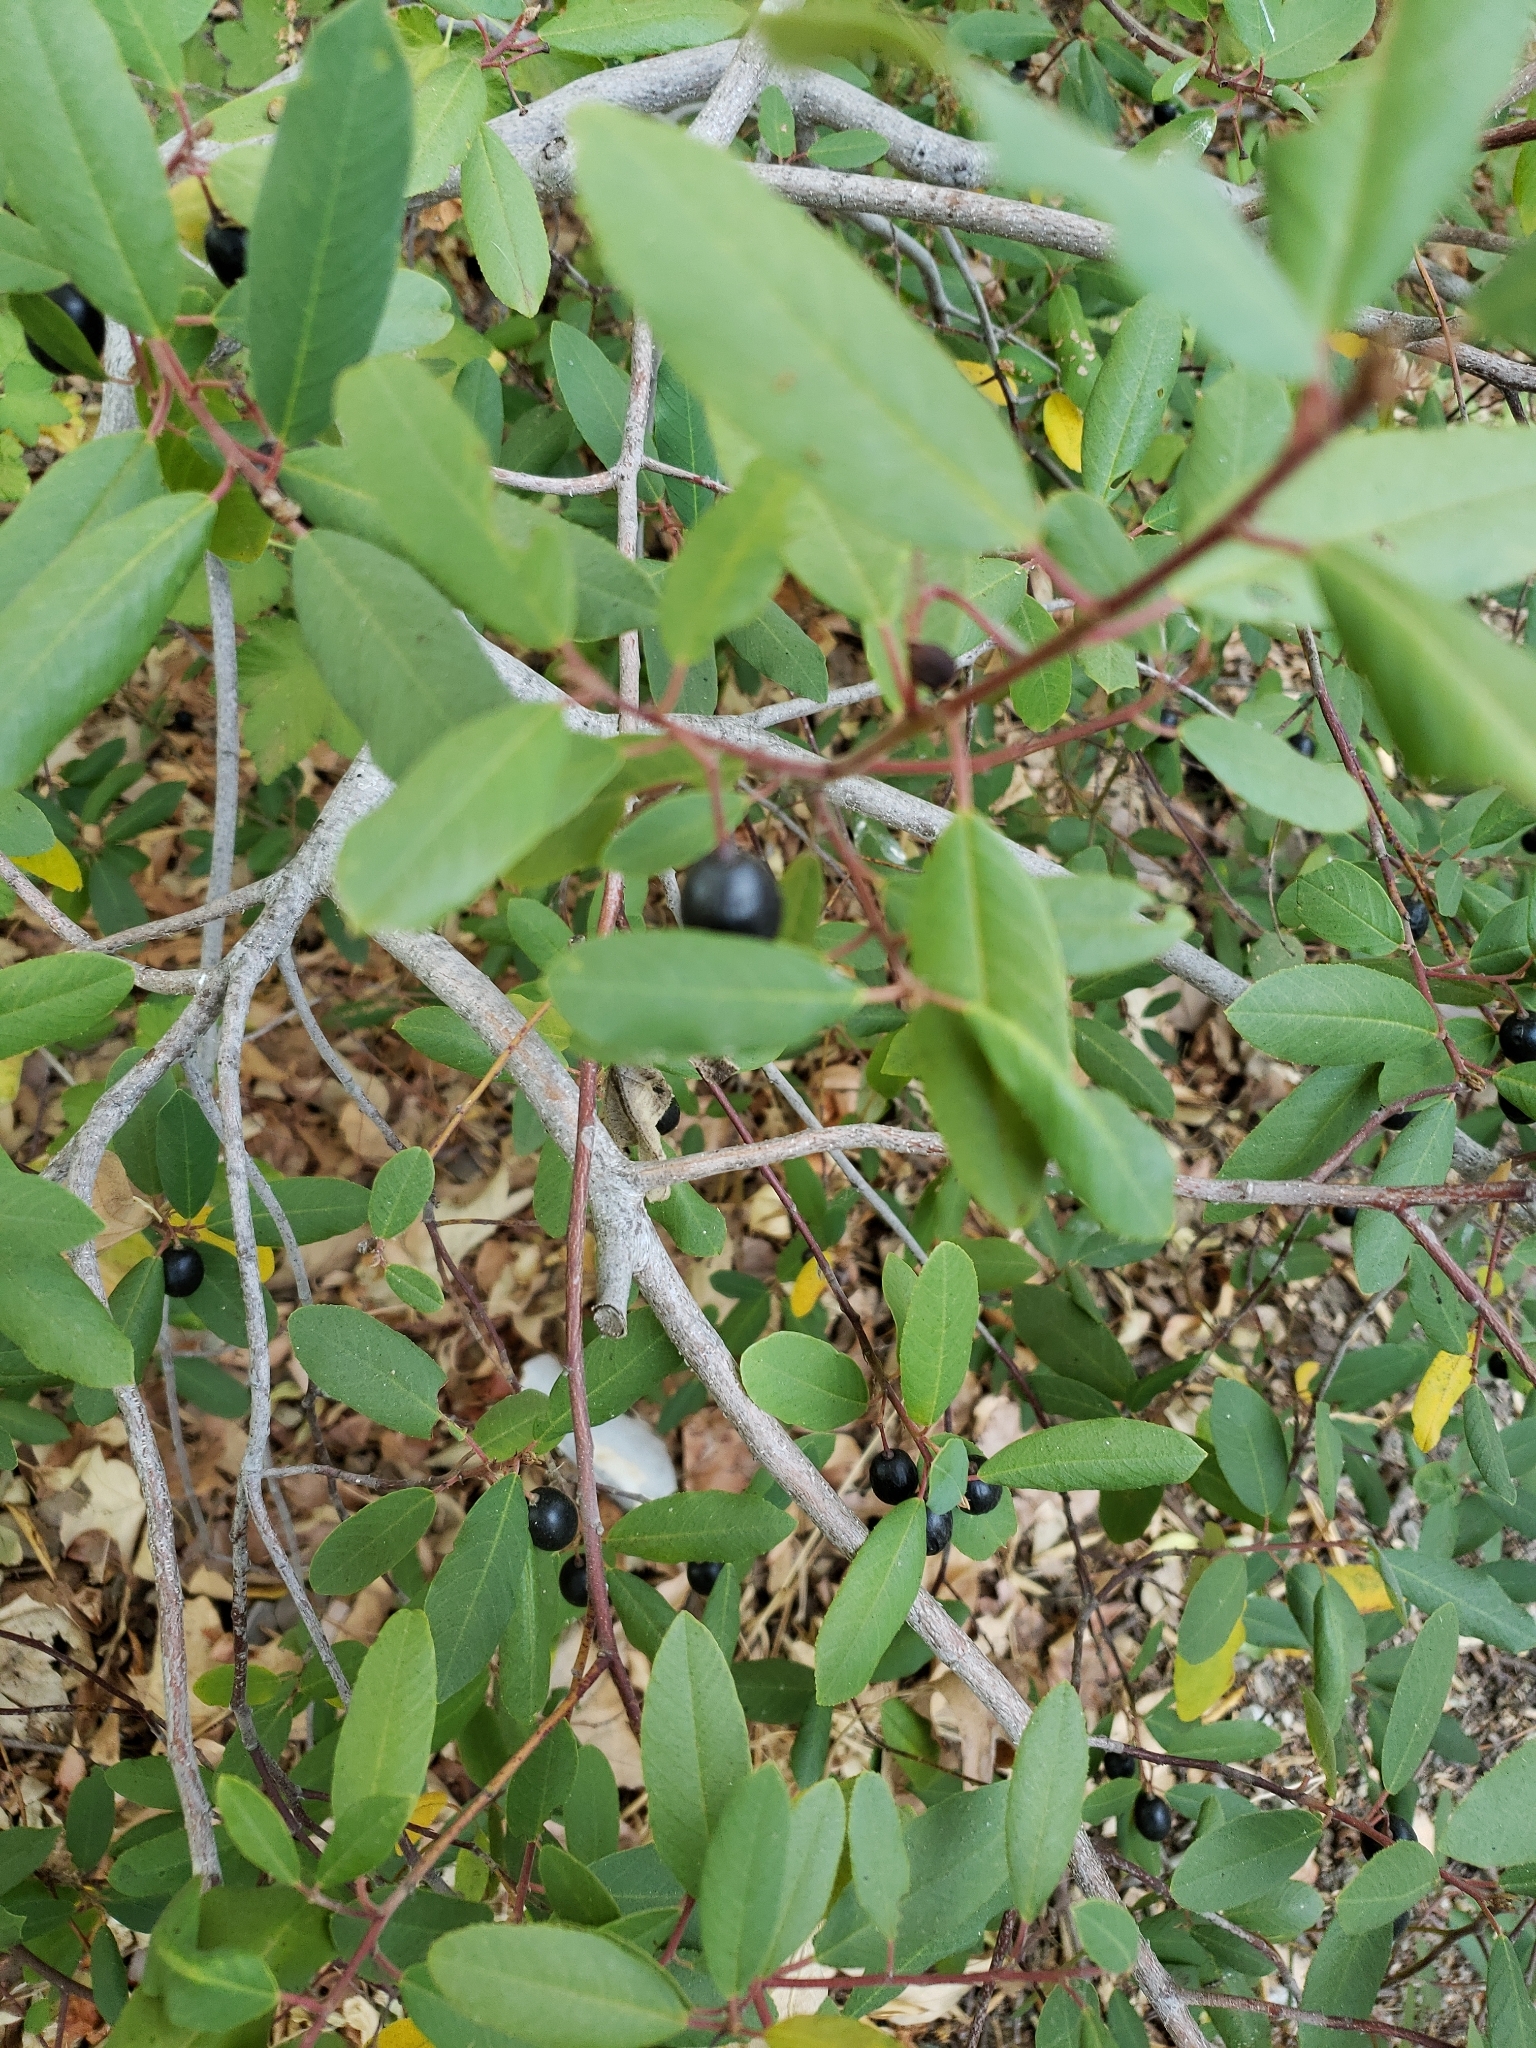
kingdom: Plantae
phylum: Tracheophyta
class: Magnoliopsida
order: Rosales
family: Rhamnaceae
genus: Frangula
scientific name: Frangula californica
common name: California buckthorn
